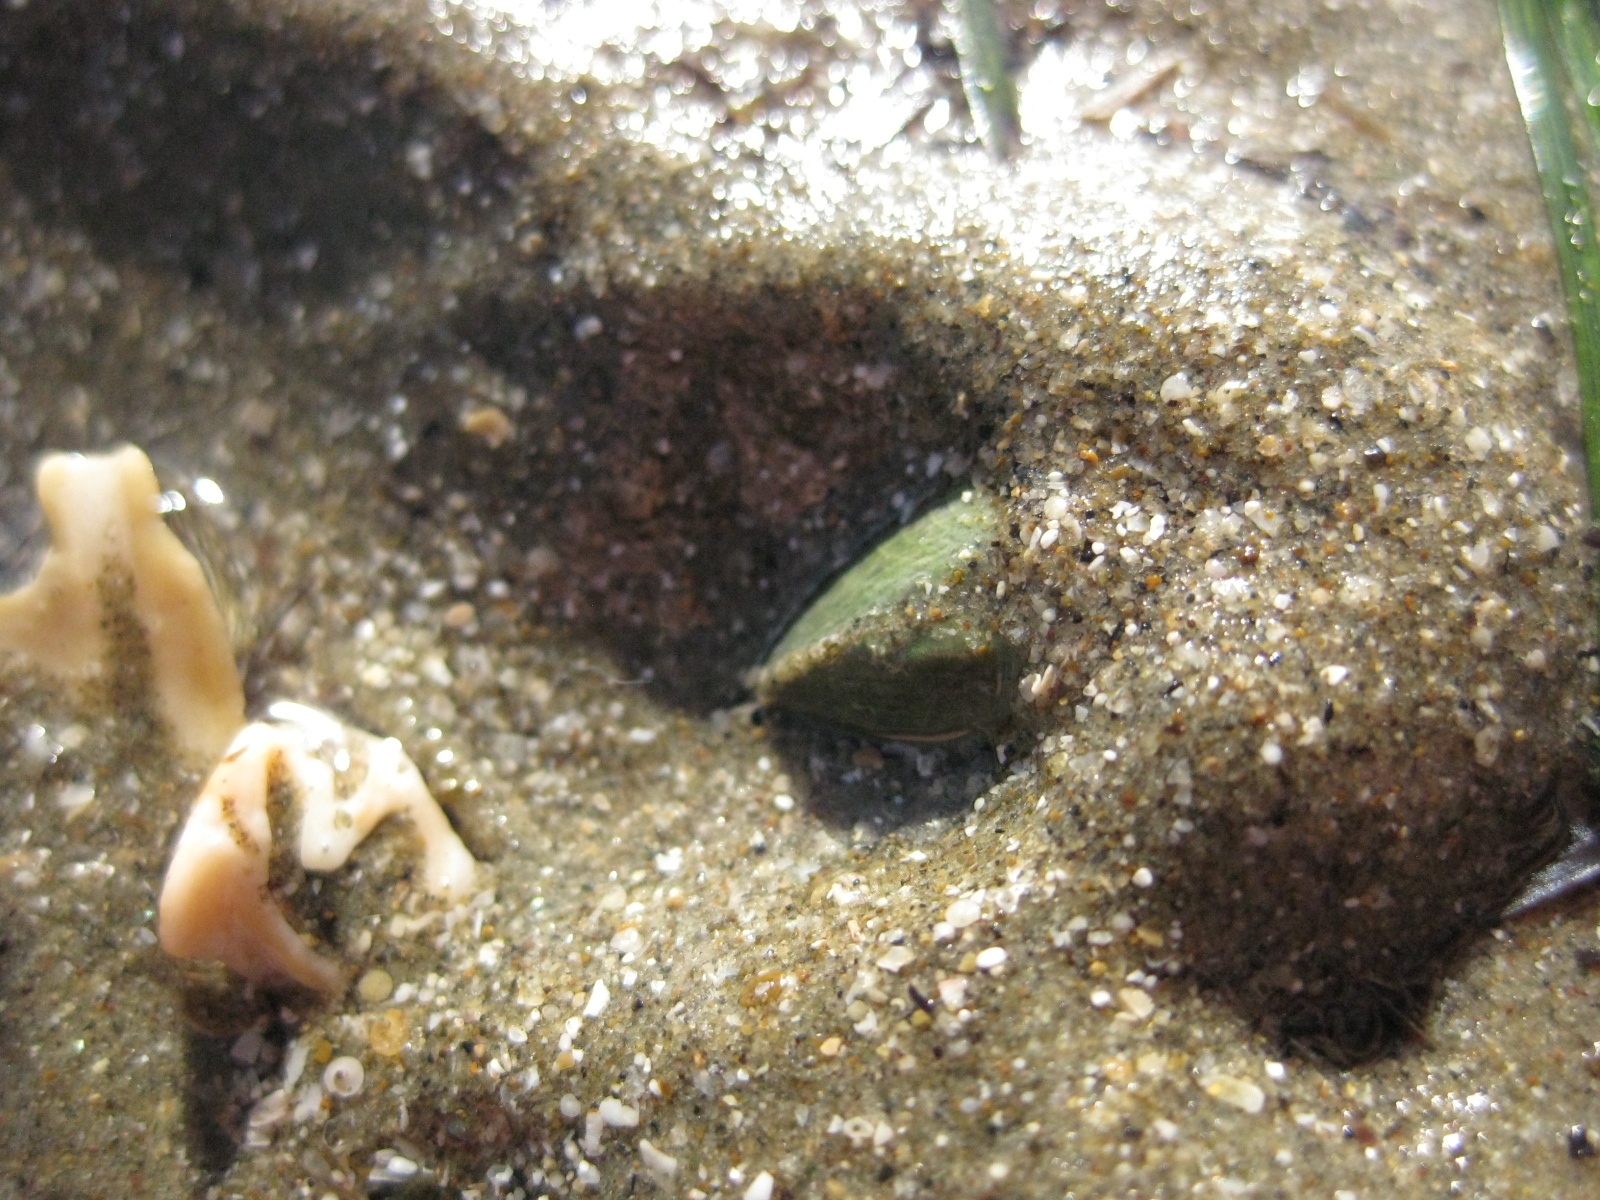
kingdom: Animalia
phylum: Mollusca
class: Bivalvia
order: Venerida
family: Veneridae
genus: Austrovenus
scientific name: Austrovenus stutchburyi
